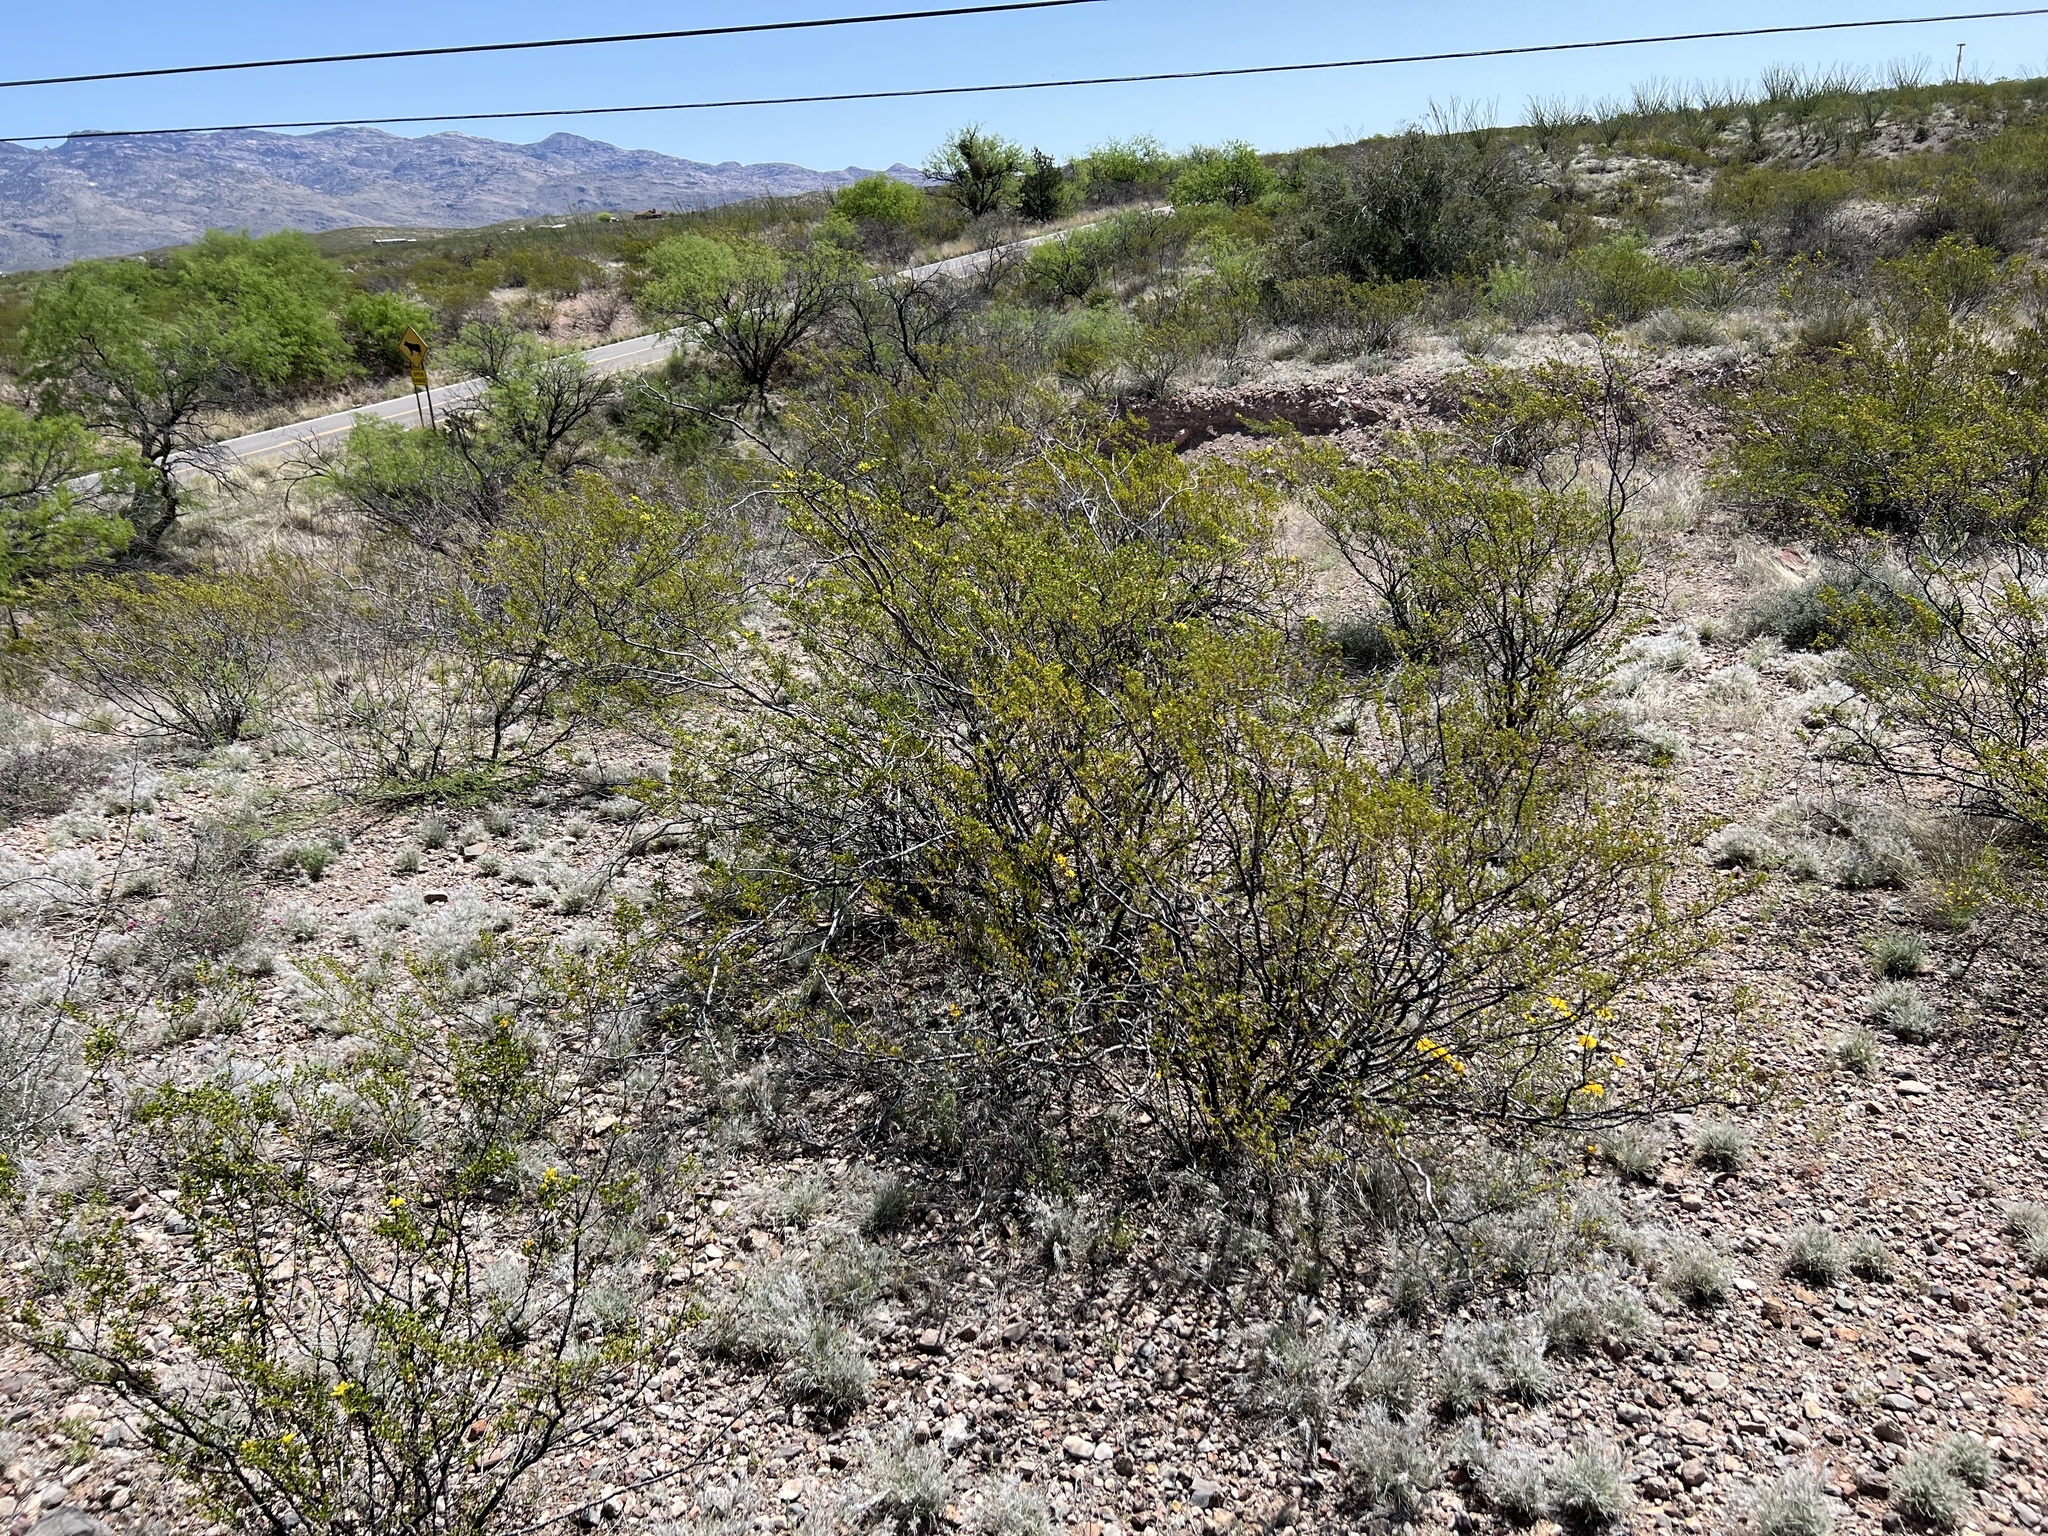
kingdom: Plantae
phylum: Tracheophyta
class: Magnoliopsida
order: Zygophyllales
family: Zygophyllaceae
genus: Larrea
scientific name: Larrea tridentata
